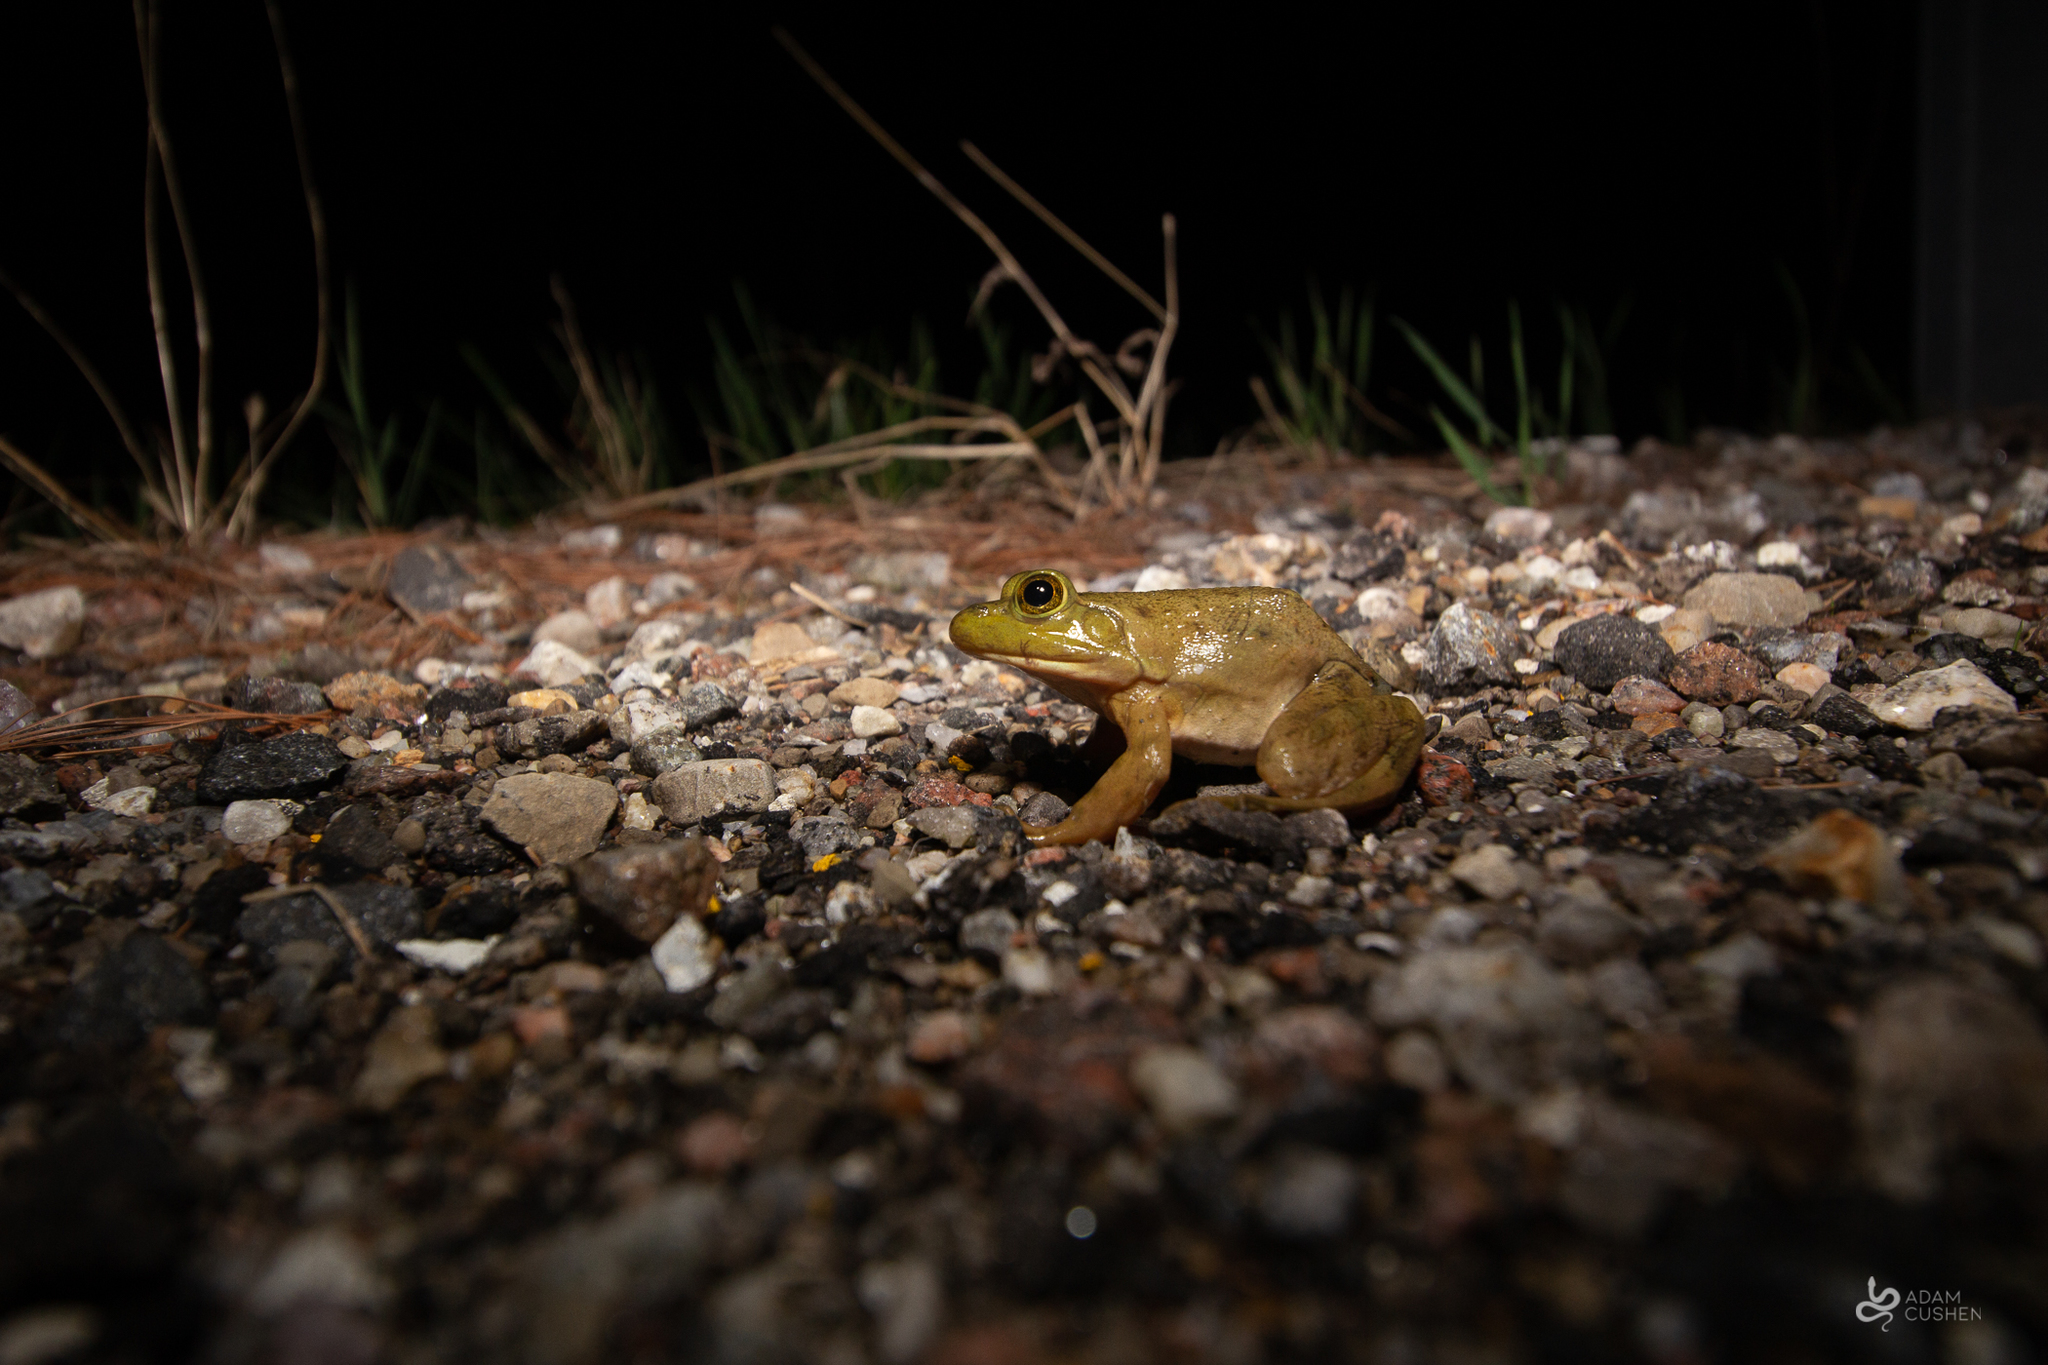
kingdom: Animalia
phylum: Chordata
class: Amphibia
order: Anura
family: Ranidae
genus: Lithobates
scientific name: Lithobates catesbeianus
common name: American bullfrog
